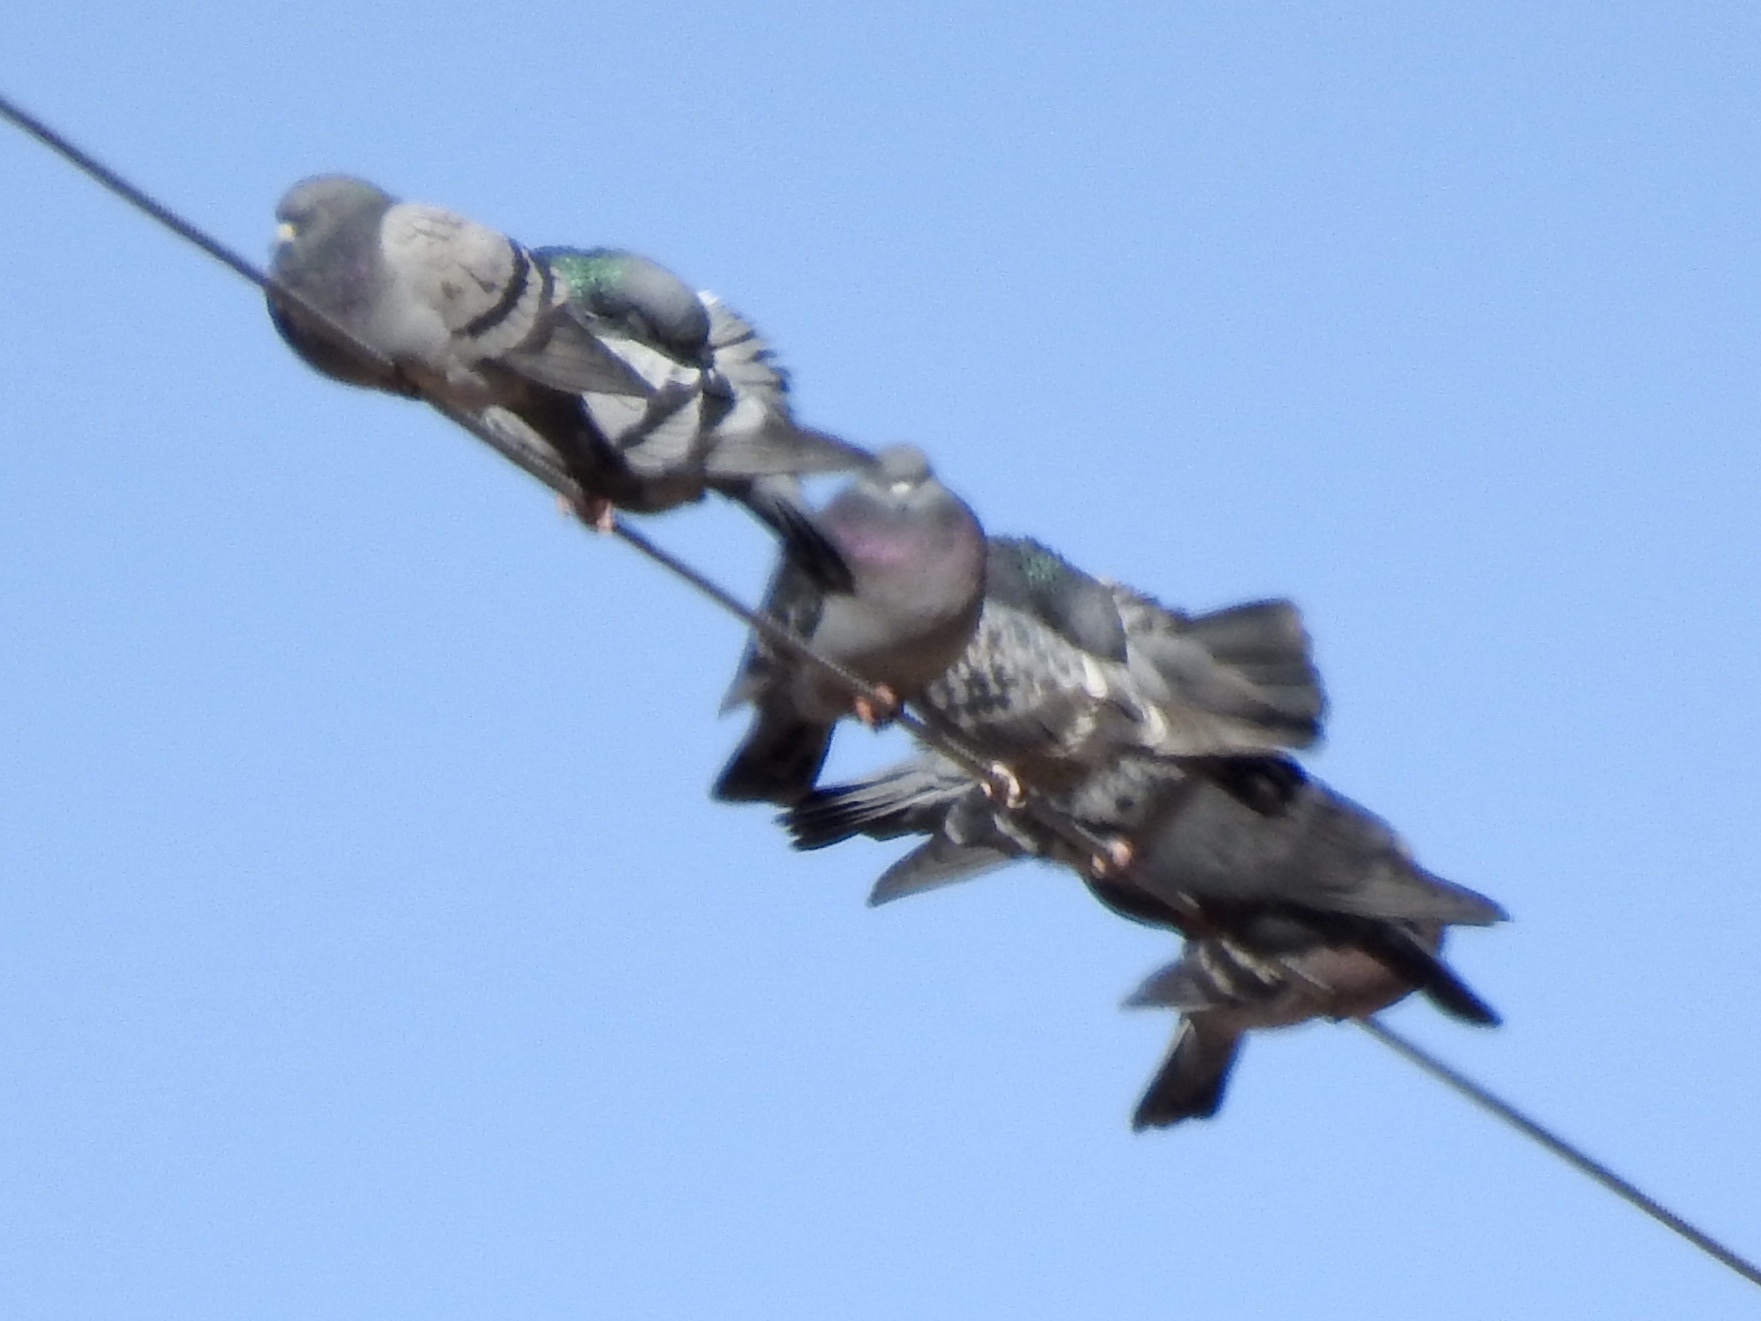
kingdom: Animalia
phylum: Chordata
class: Aves
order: Columbiformes
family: Columbidae
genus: Columba
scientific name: Columba livia
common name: Rock pigeon
